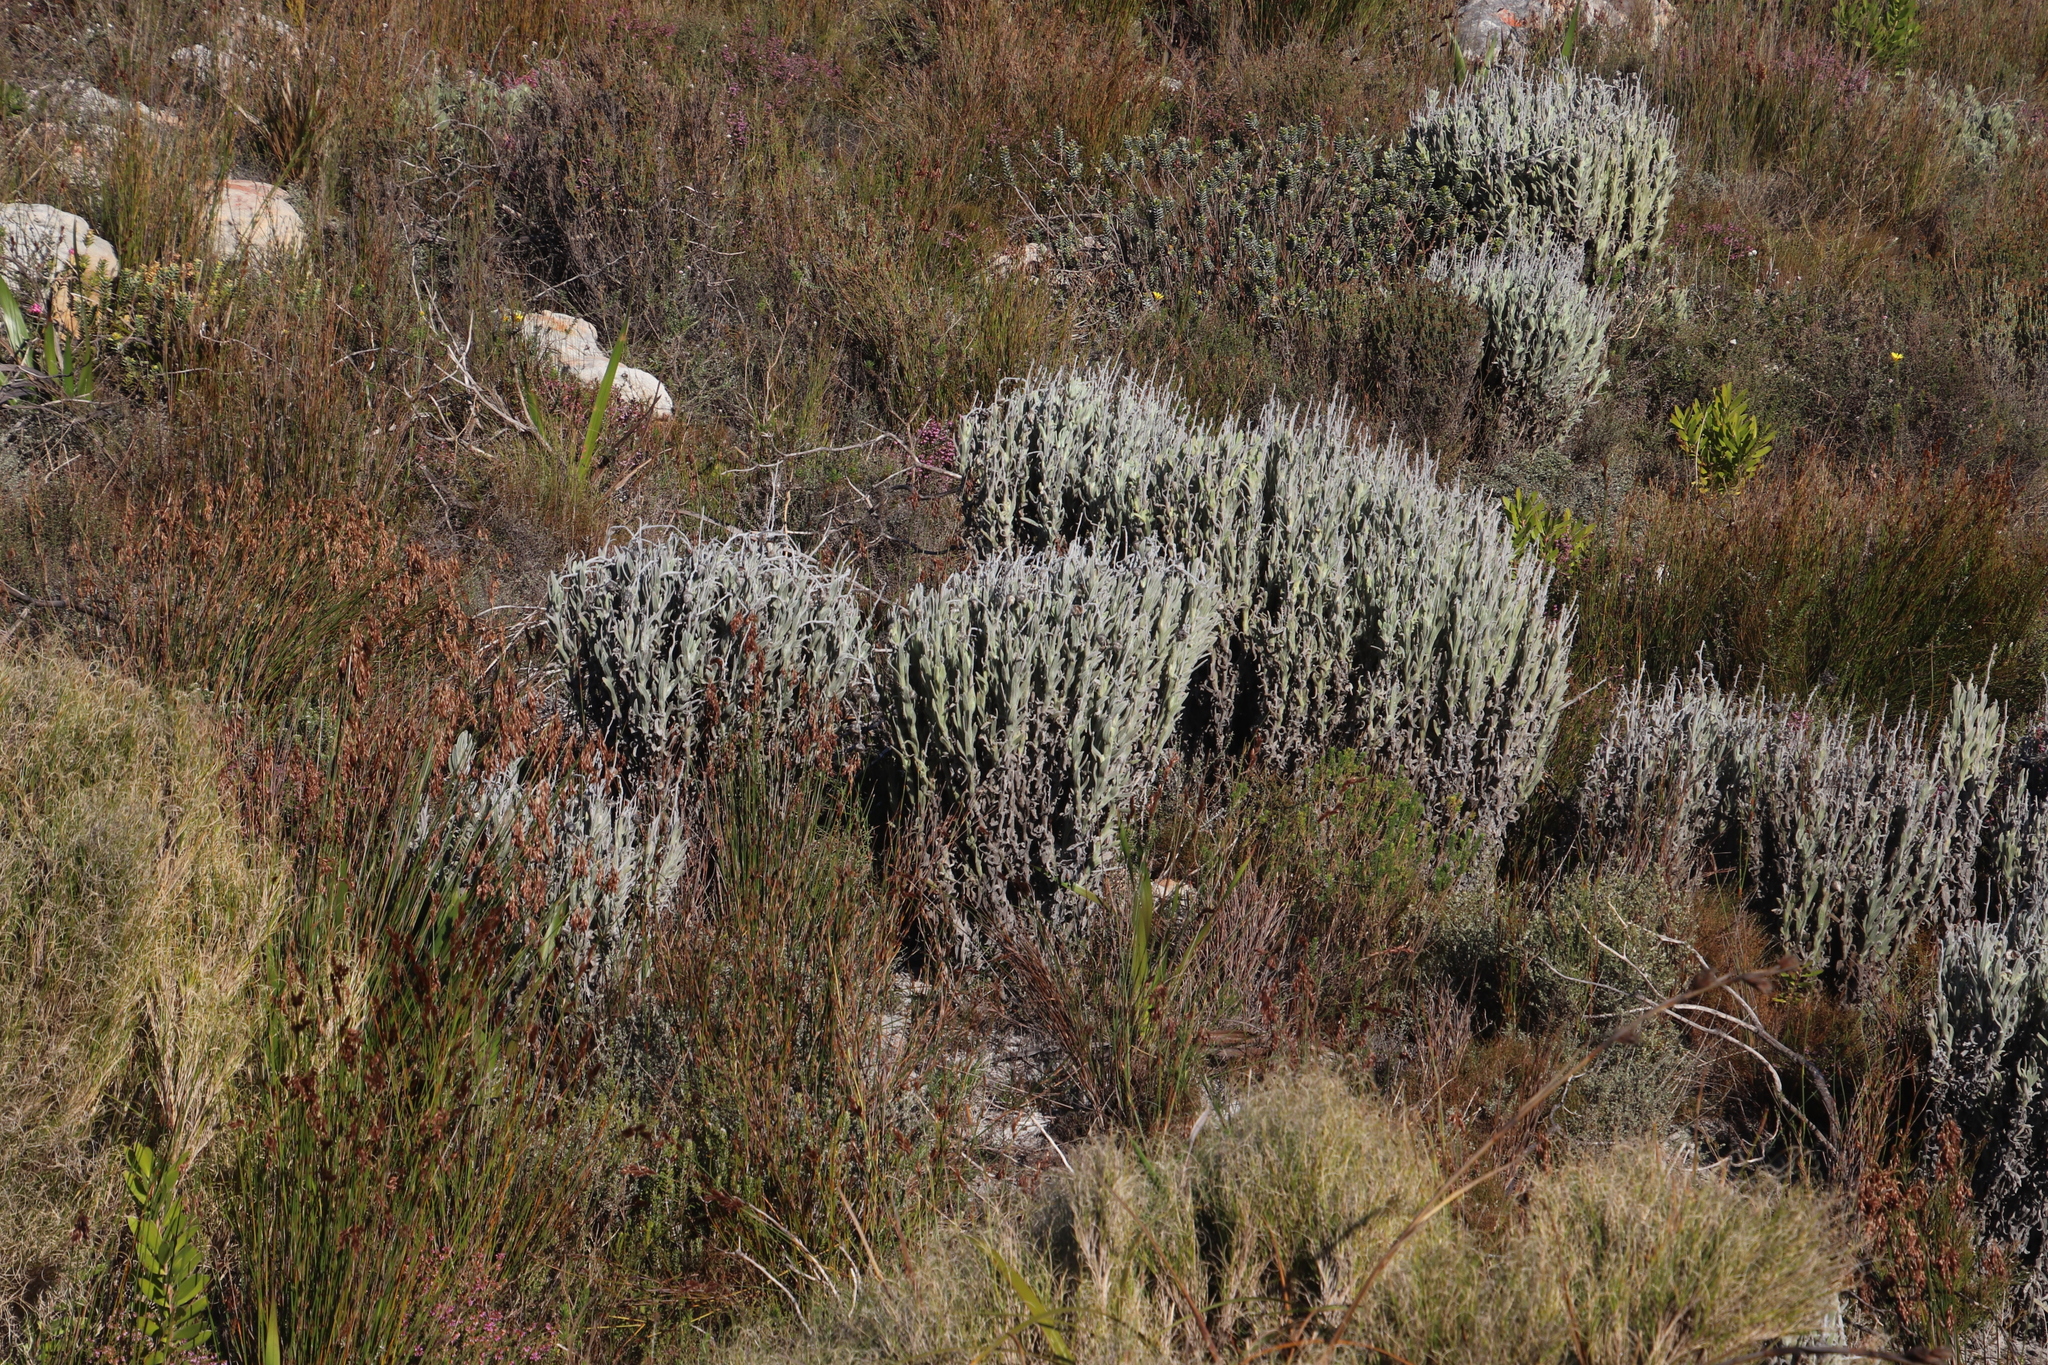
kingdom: Plantae
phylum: Tracheophyta
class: Magnoliopsida
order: Asterales
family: Asteraceae
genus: Syncarpha
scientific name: Syncarpha vestita
